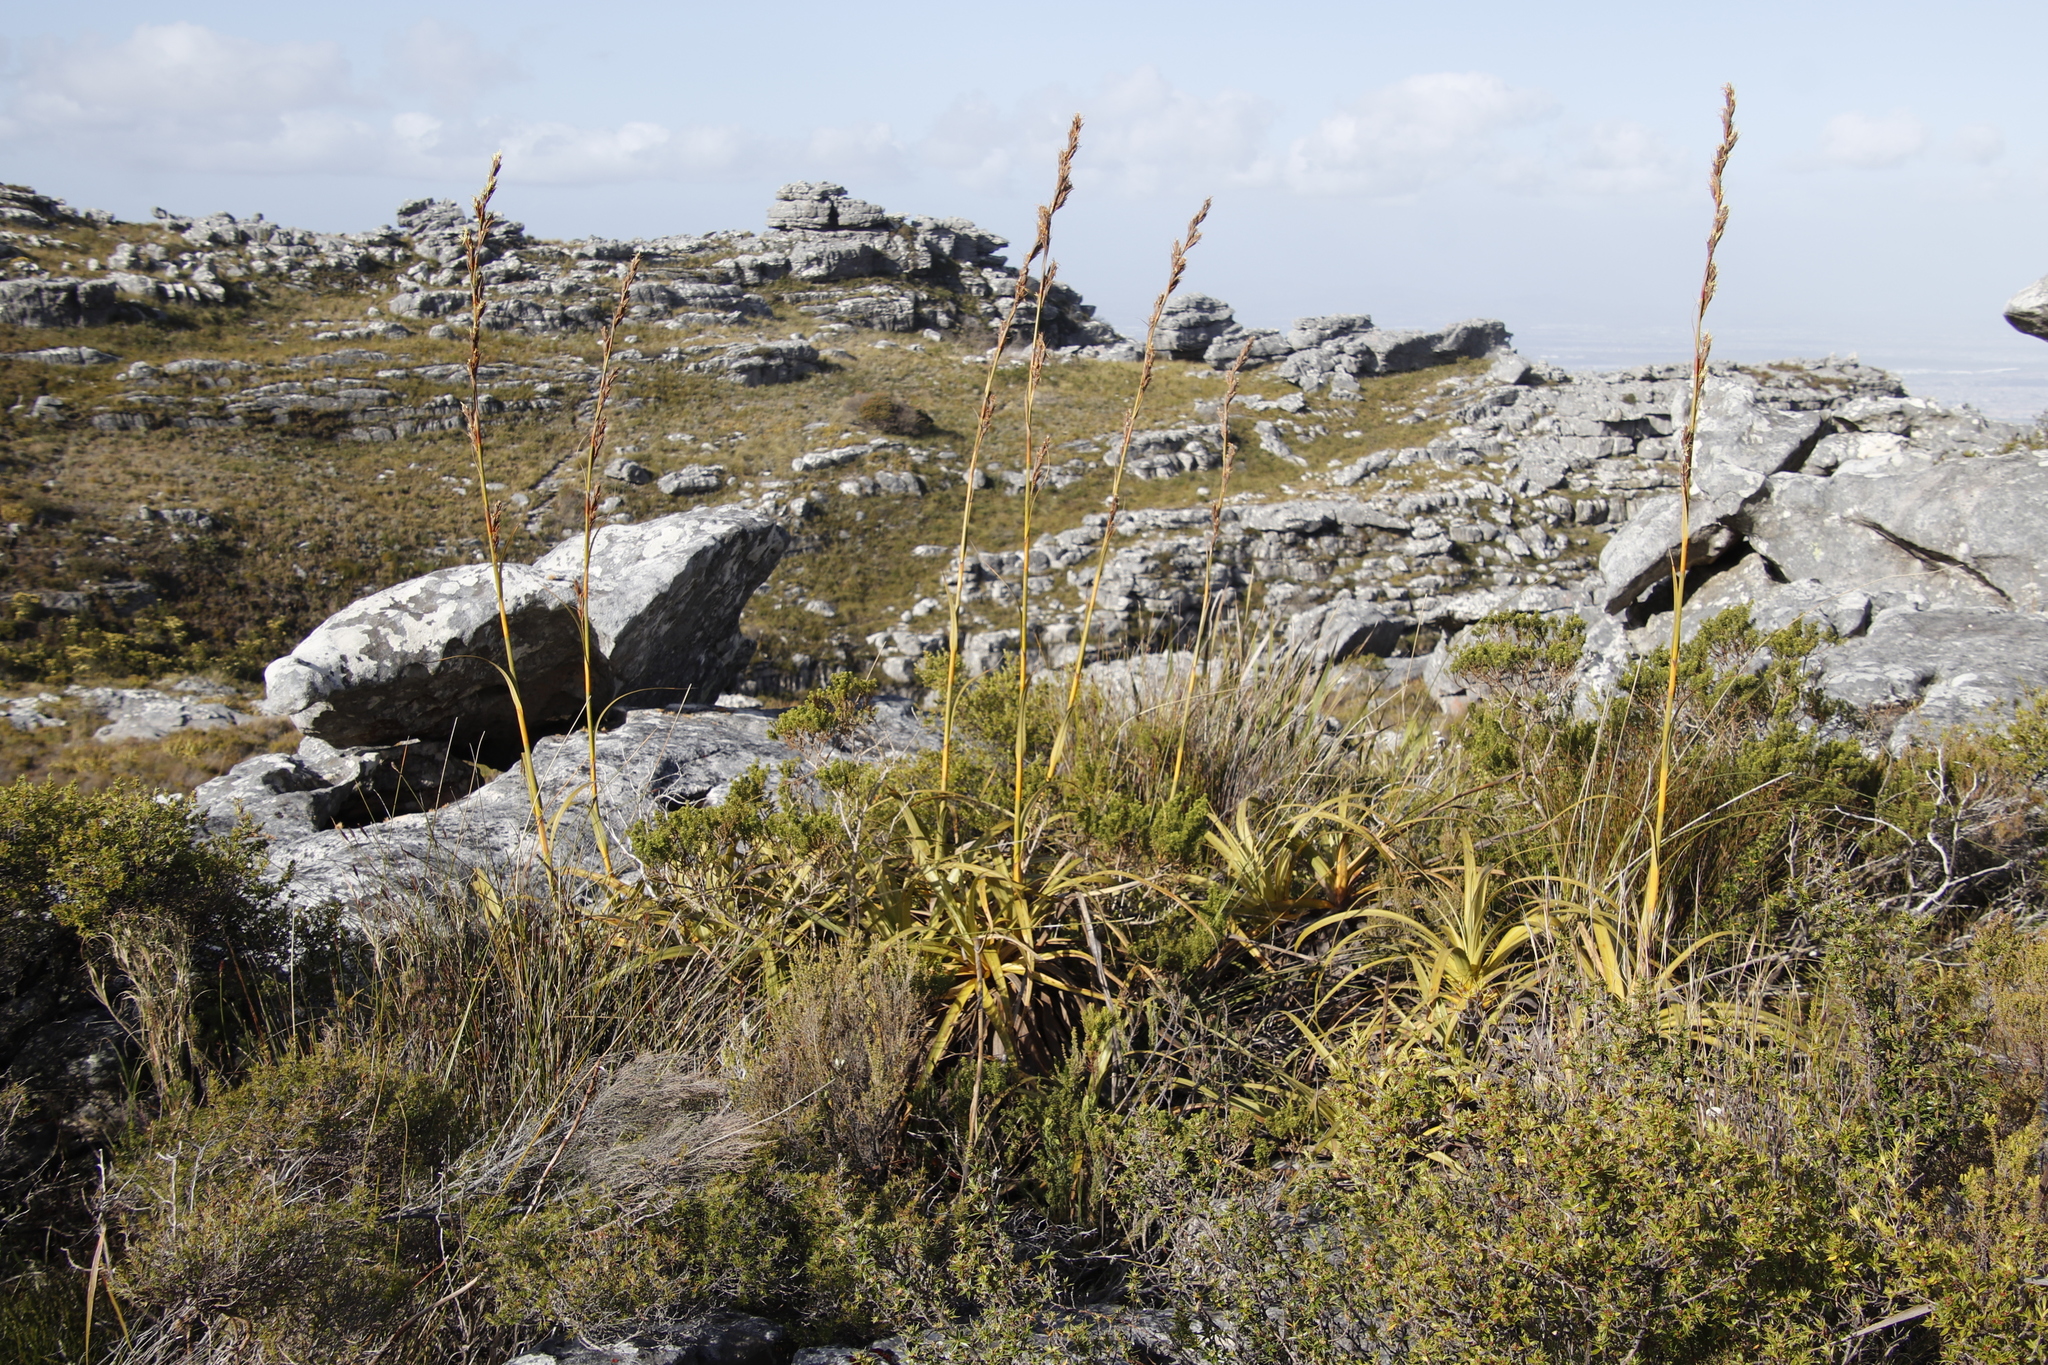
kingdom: Plantae
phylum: Tracheophyta
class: Liliopsida
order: Poales
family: Cyperaceae
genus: Tetraria
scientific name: Tetraria thermalis
